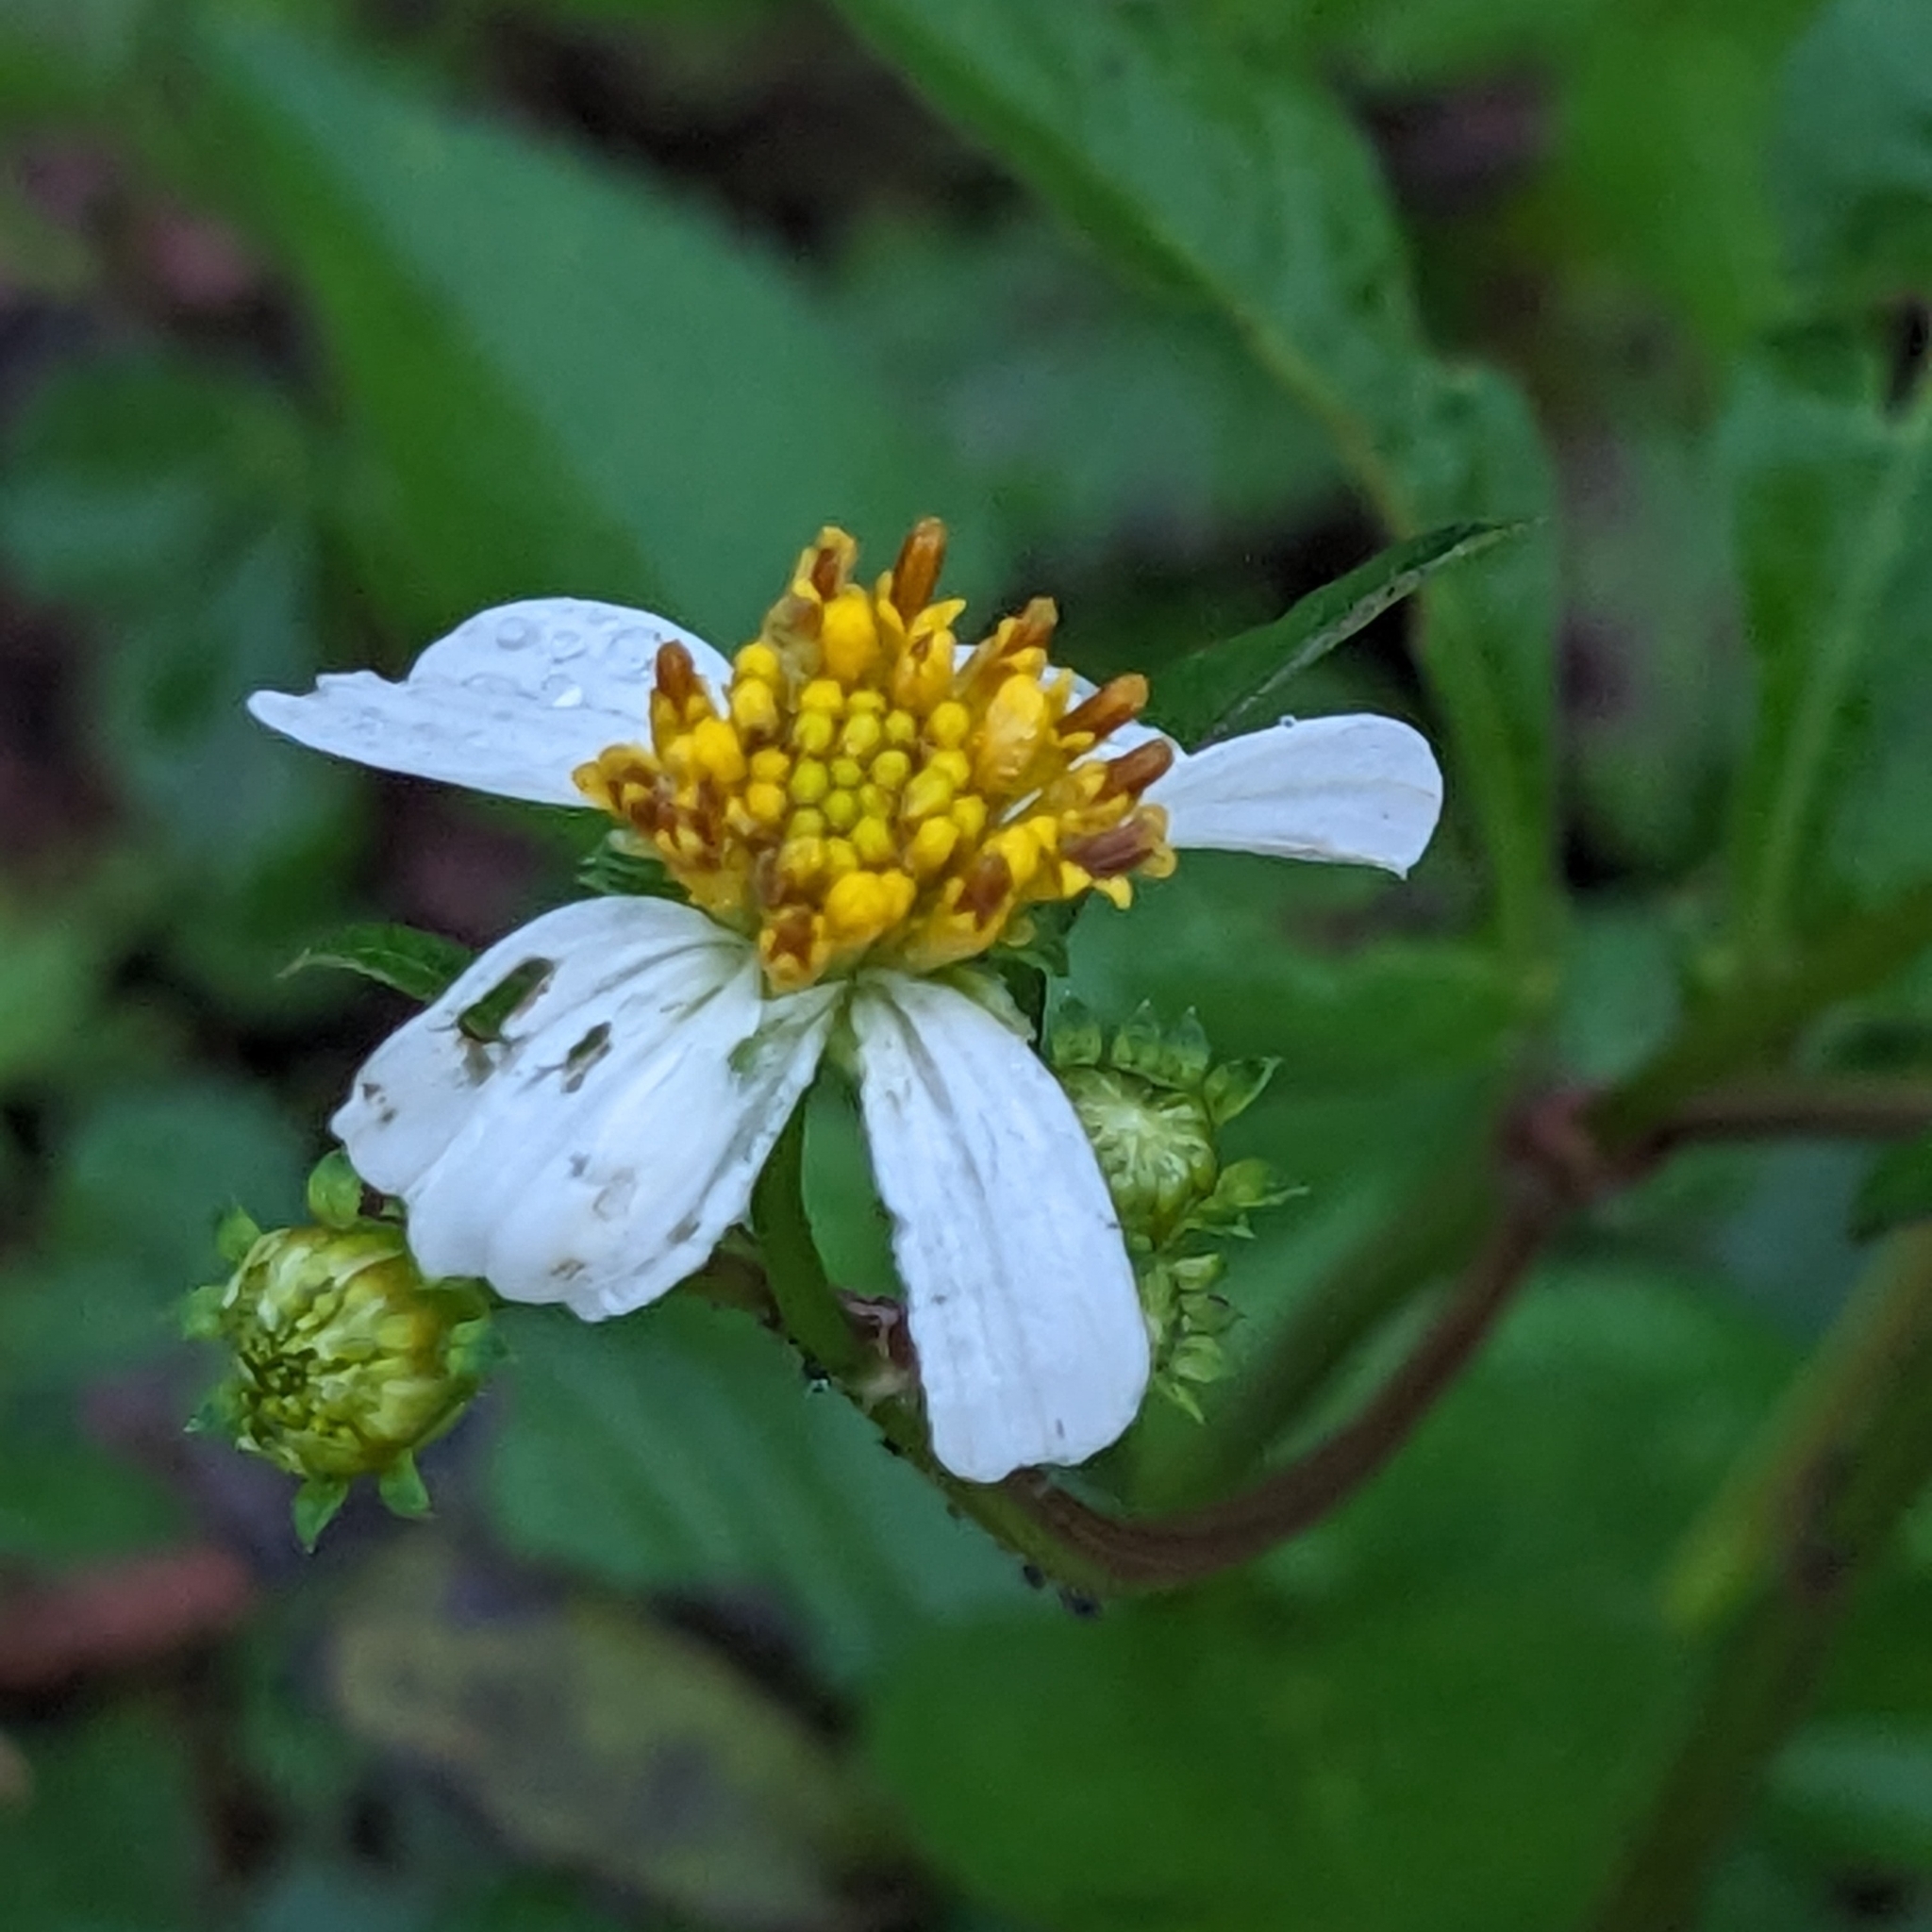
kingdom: Plantae
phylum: Tracheophyta
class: Magnoliopsida
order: Asterales
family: Asteraceae
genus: Bidens
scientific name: Bidens alba
